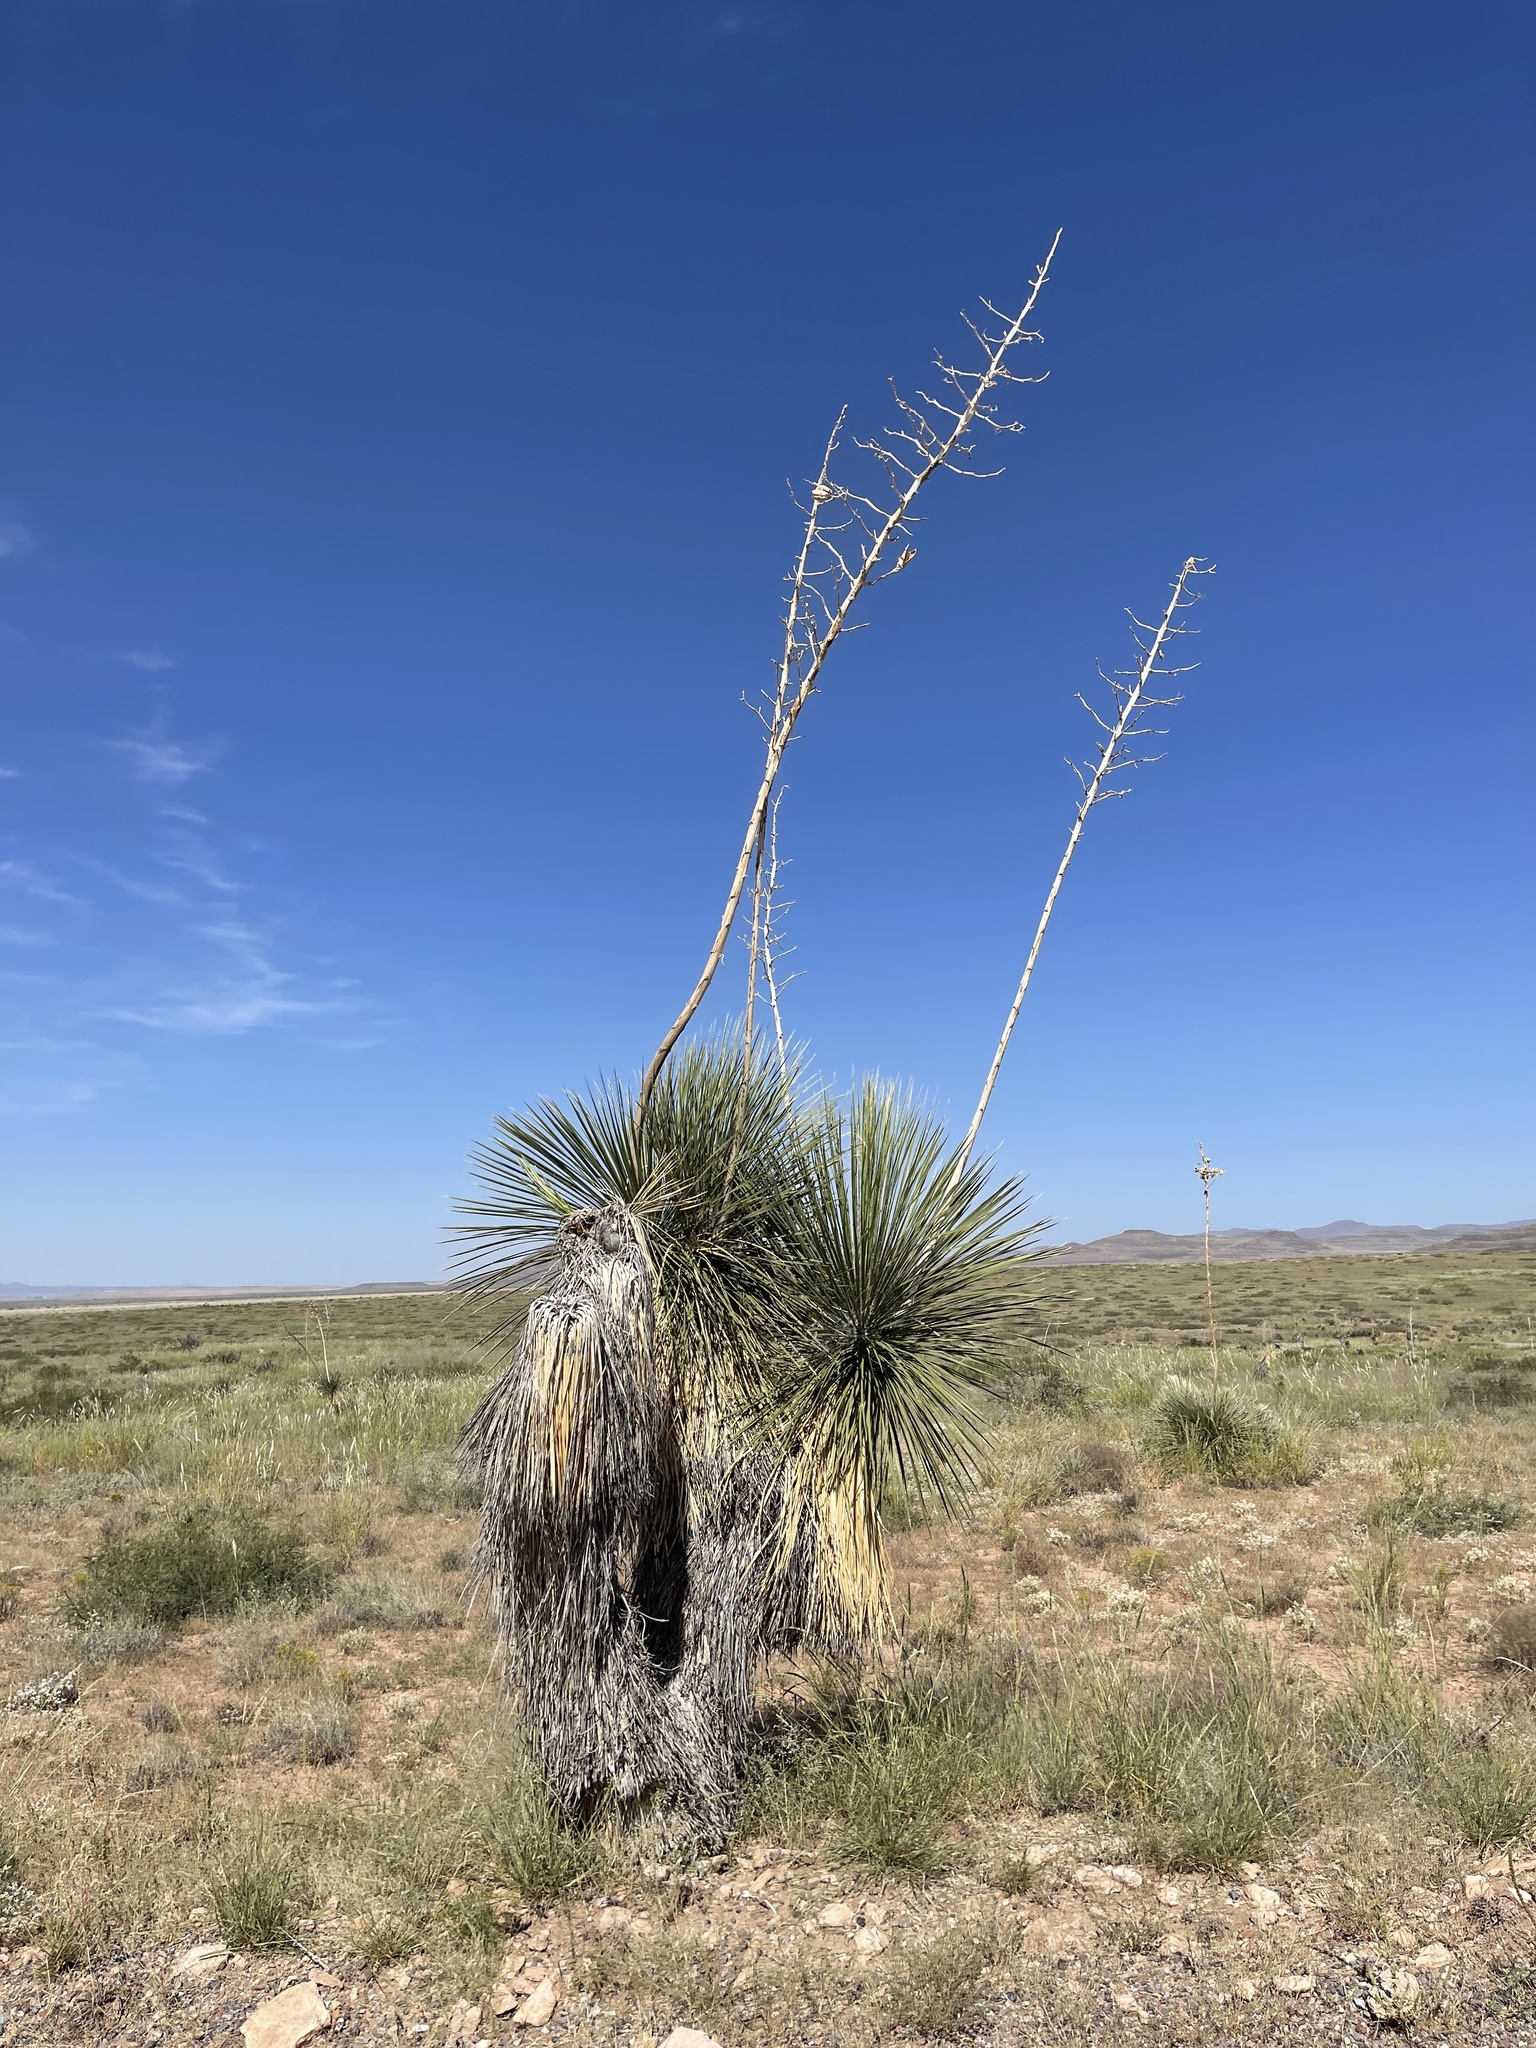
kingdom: Plantae
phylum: Tracheophyta
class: Liliopsida
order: Asparagales
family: Asparagaceae
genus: Yucca
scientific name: Yucca elata
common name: Palmella
